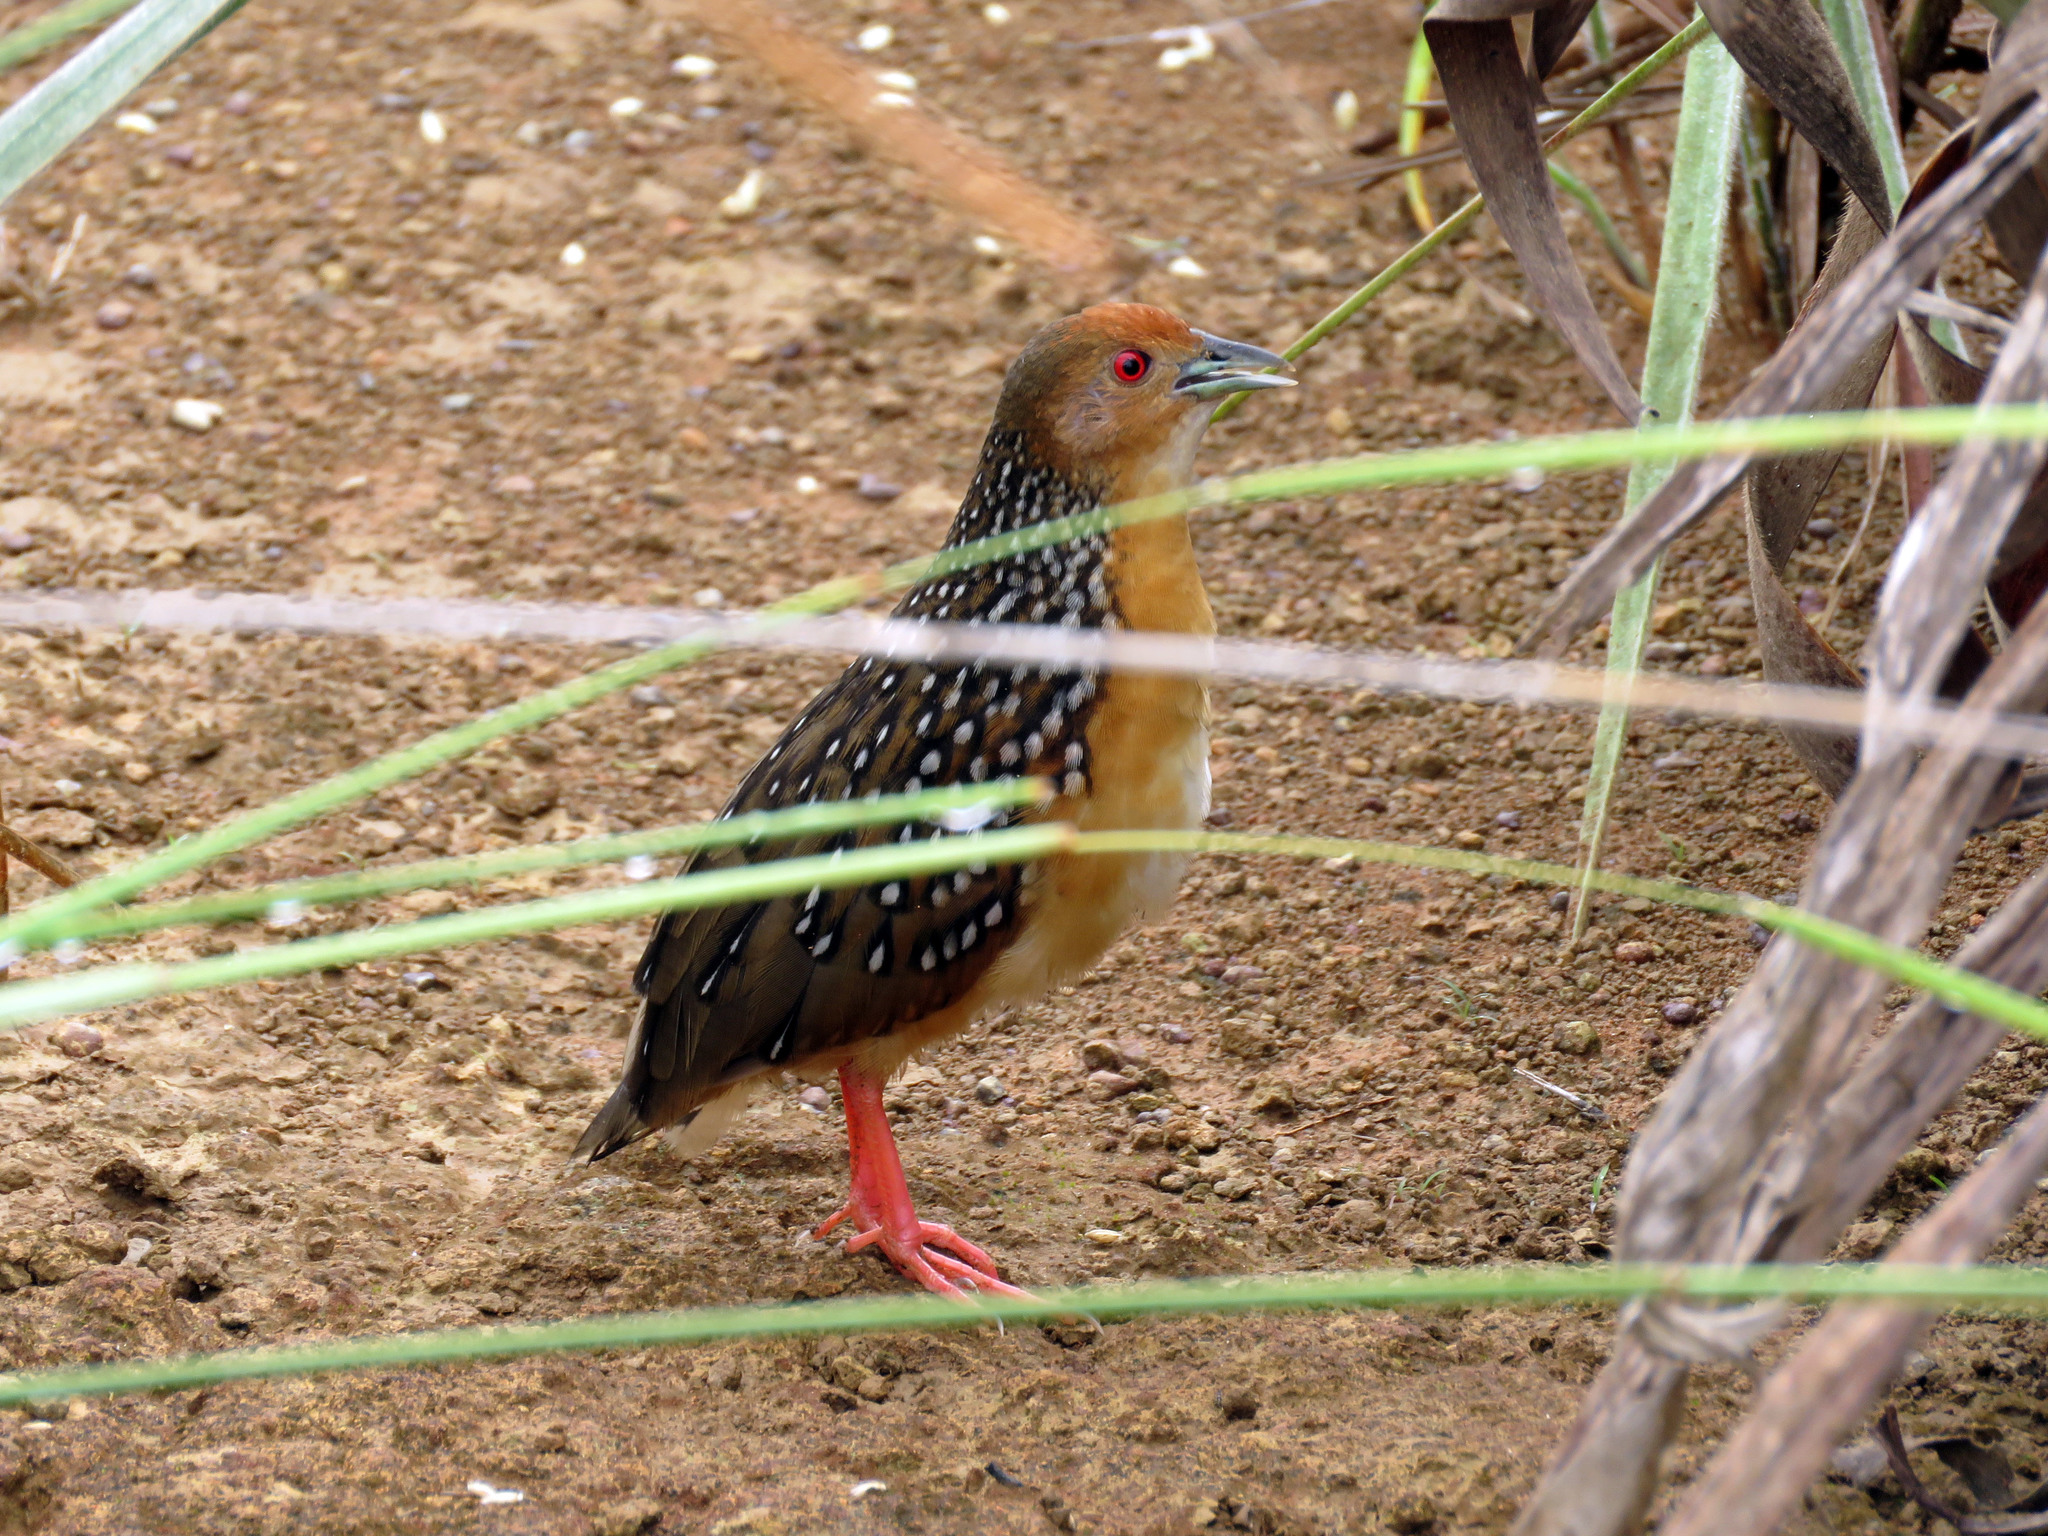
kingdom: Animalia
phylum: Chordata
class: Aves
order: Gruiformes
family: Rallidae
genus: Rufirallus
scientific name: Rufirallus
